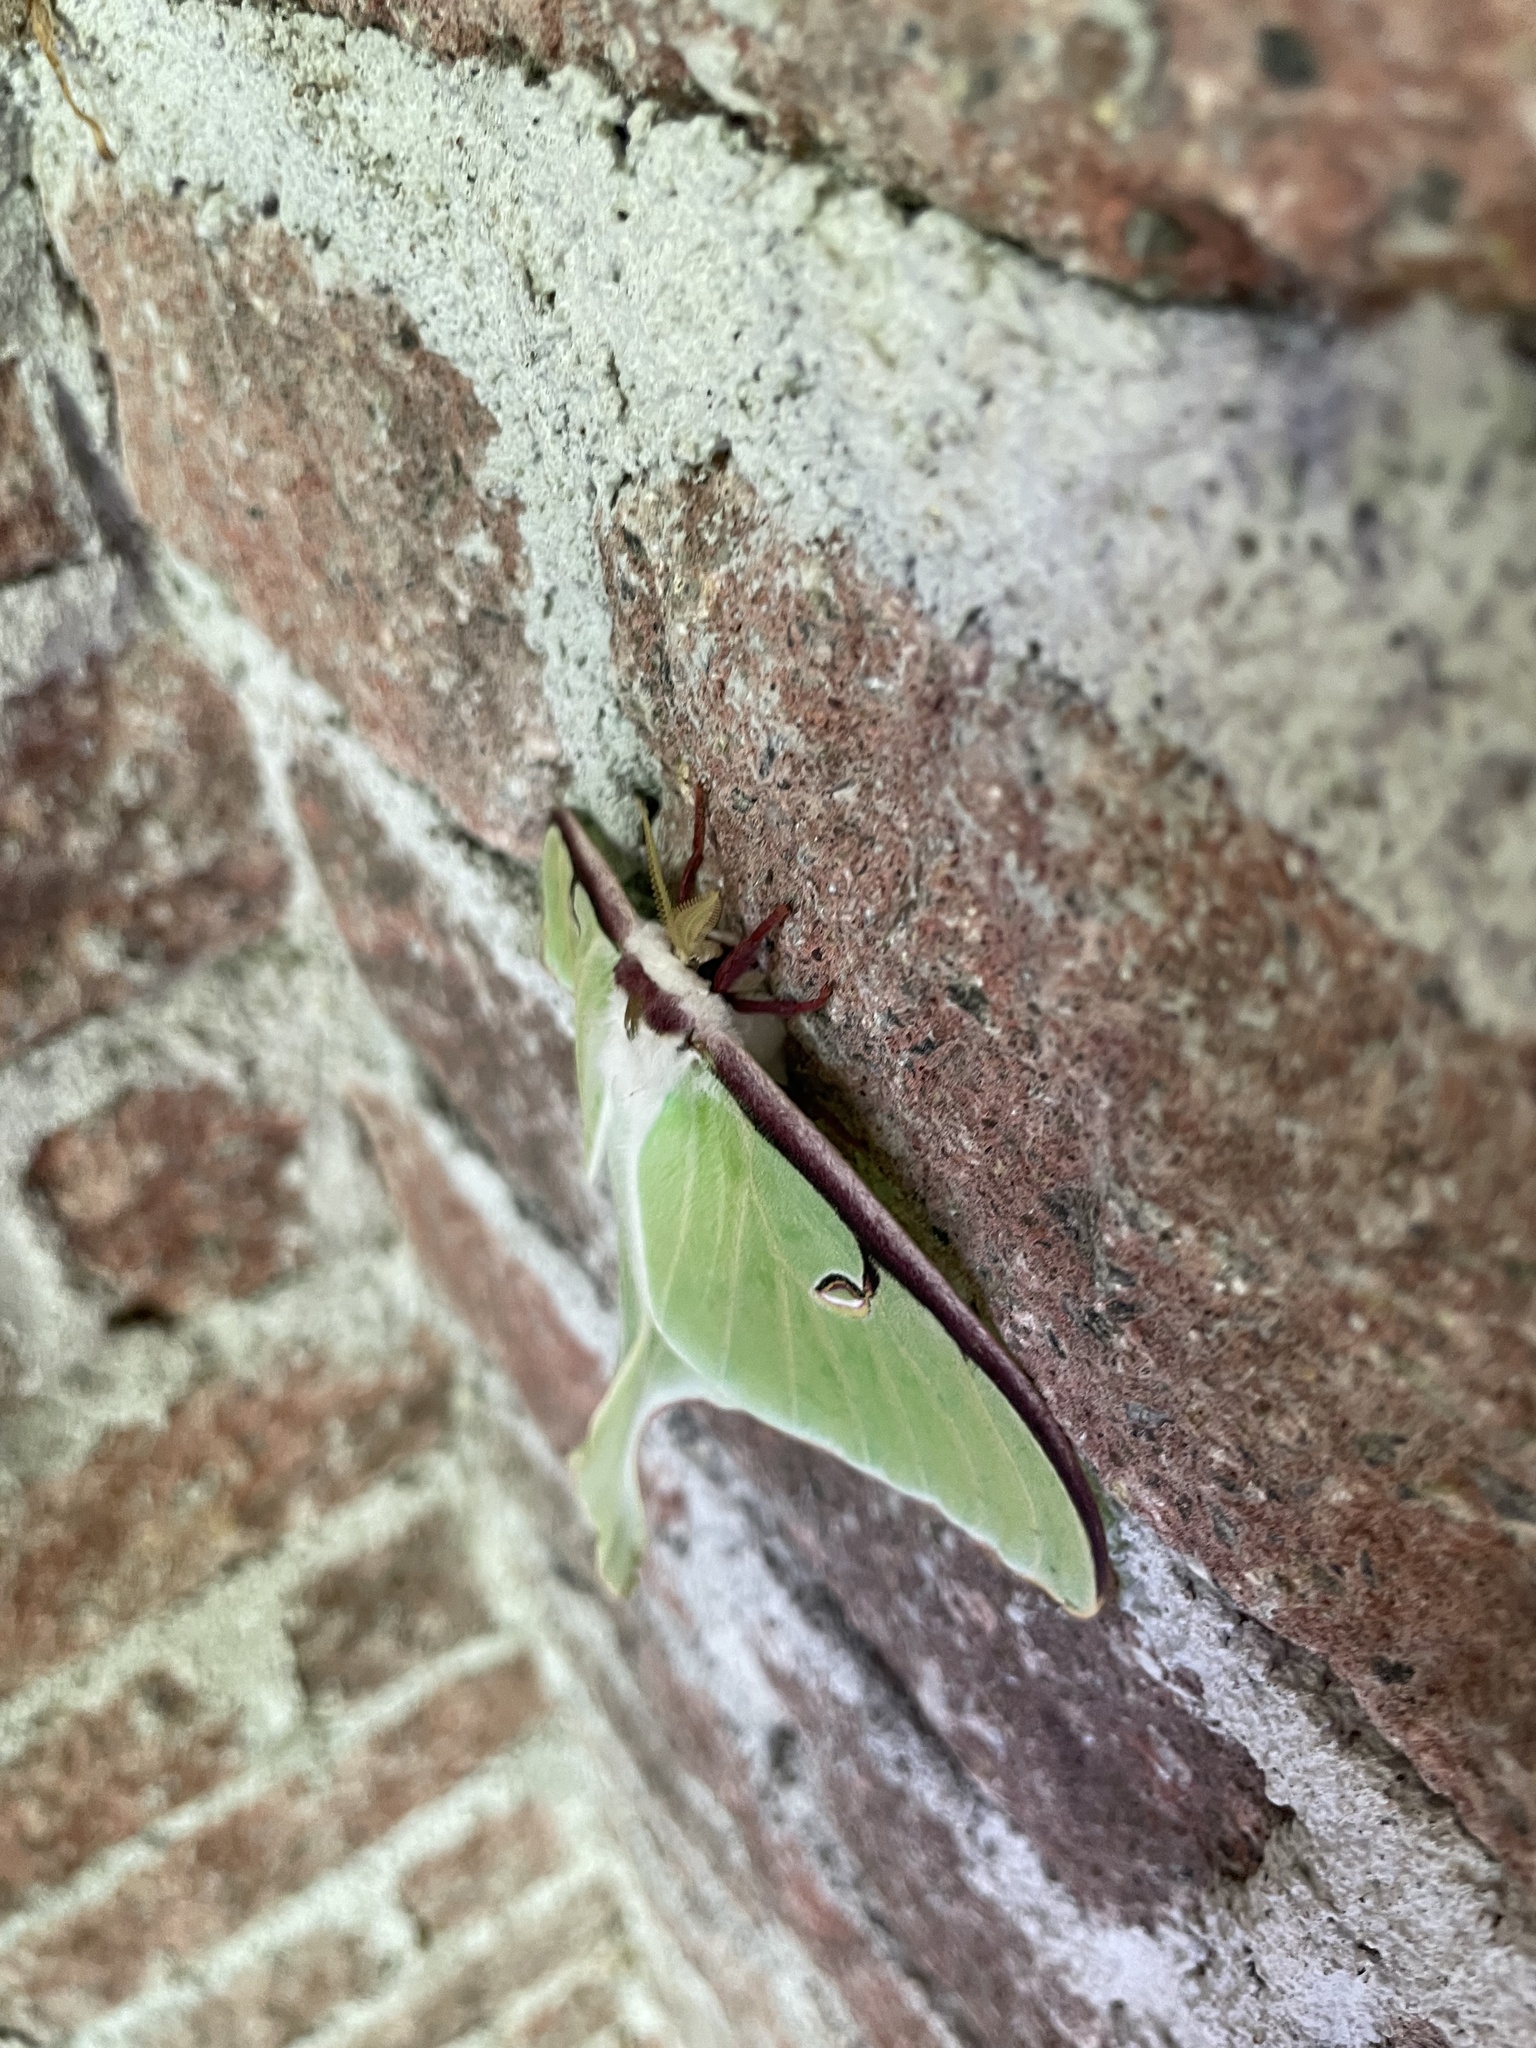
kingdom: Animalia
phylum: Arthropoda
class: Insecta
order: Lepidoptera
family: Saturniidae
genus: Actias
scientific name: Actias luna
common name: Luna moth
